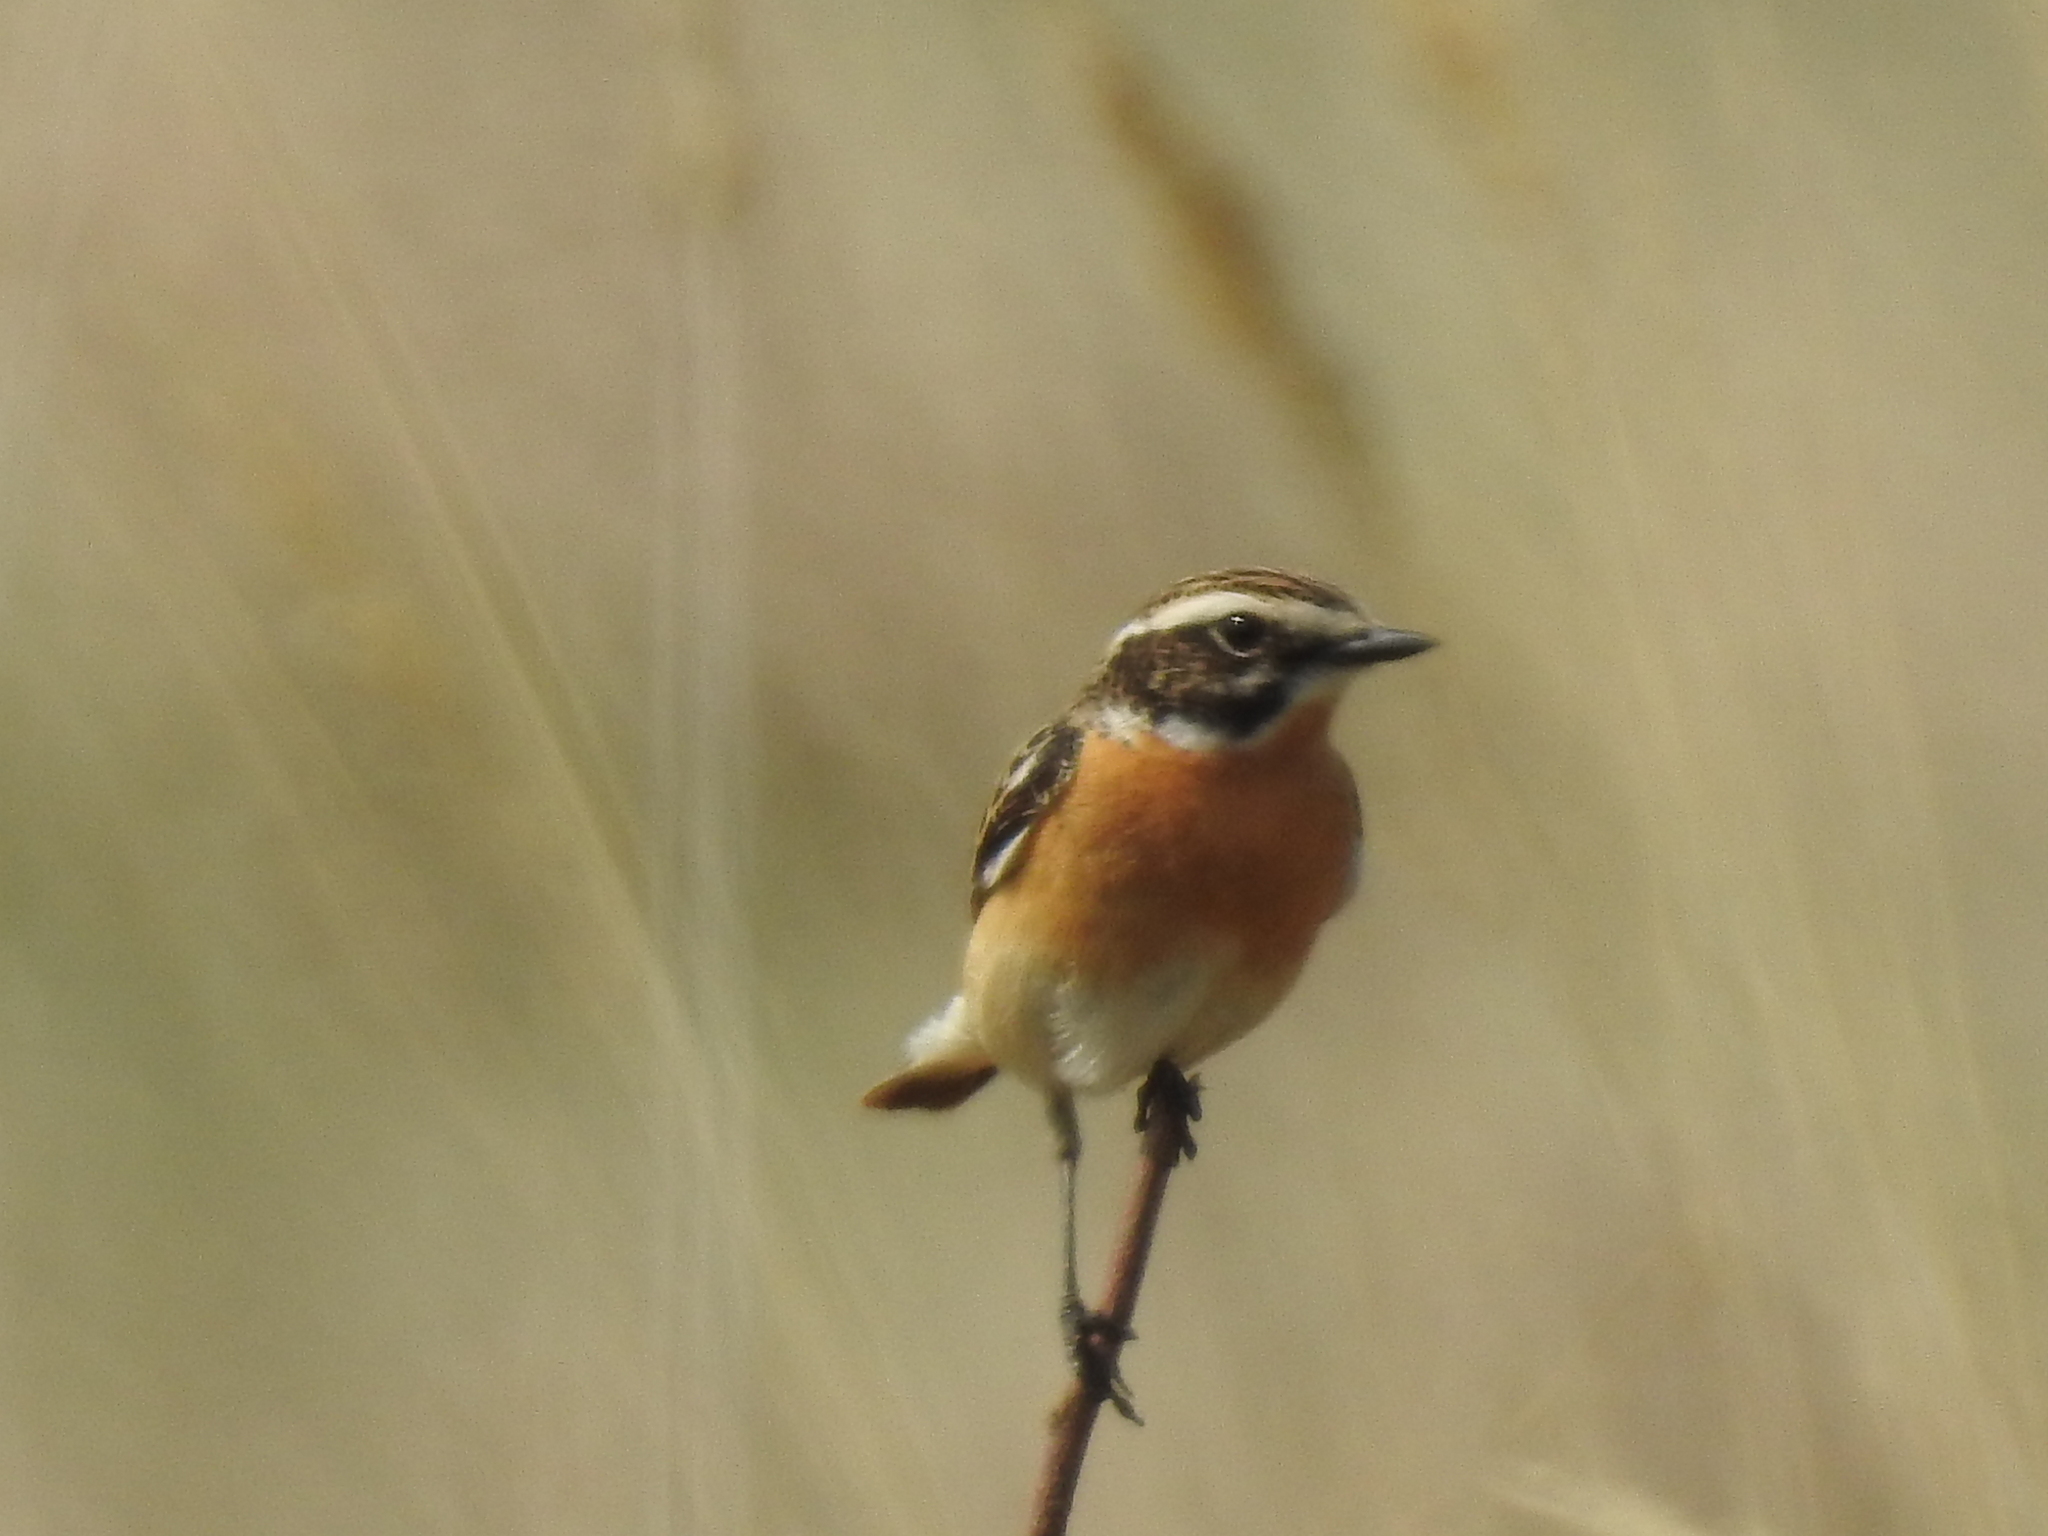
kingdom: Animalia
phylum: Chordata
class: Aves
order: Passeriformes
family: Muscicapidae
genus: Saxicola
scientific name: Saxicola rubetra
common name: Whinchat
